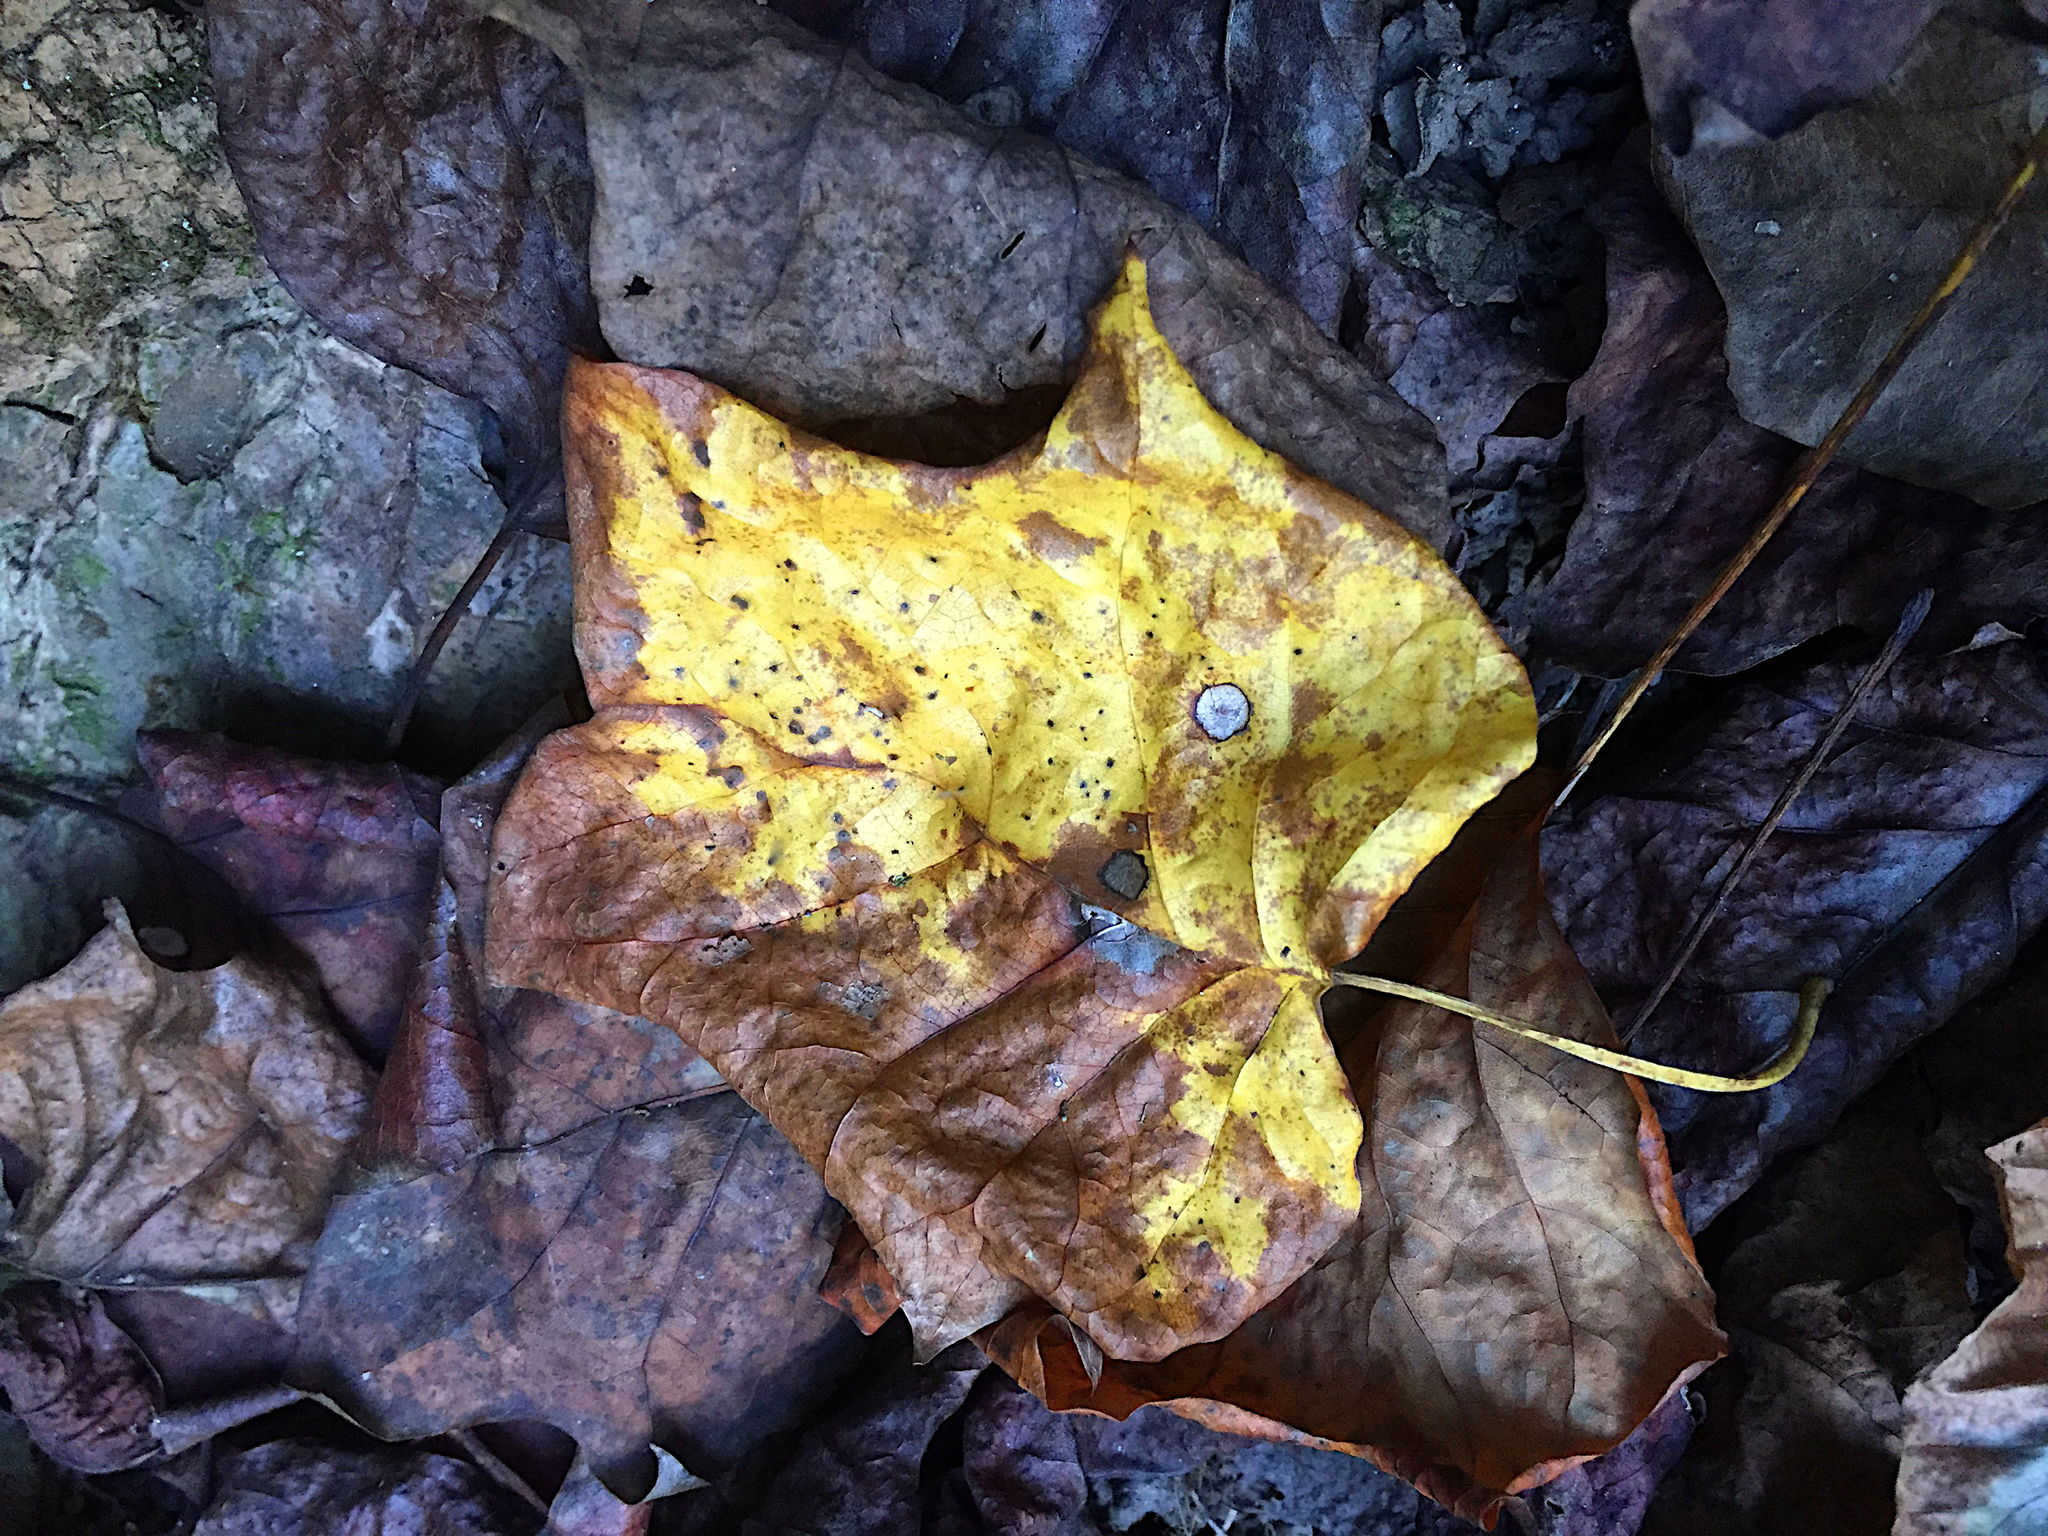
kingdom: Plantae
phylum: Tracheophyta
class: Magnoliopsida
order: Magnoliales
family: Magnoliaceae
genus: Liriodendron
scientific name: Liriodendron tulipifera
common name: Tulip tree
